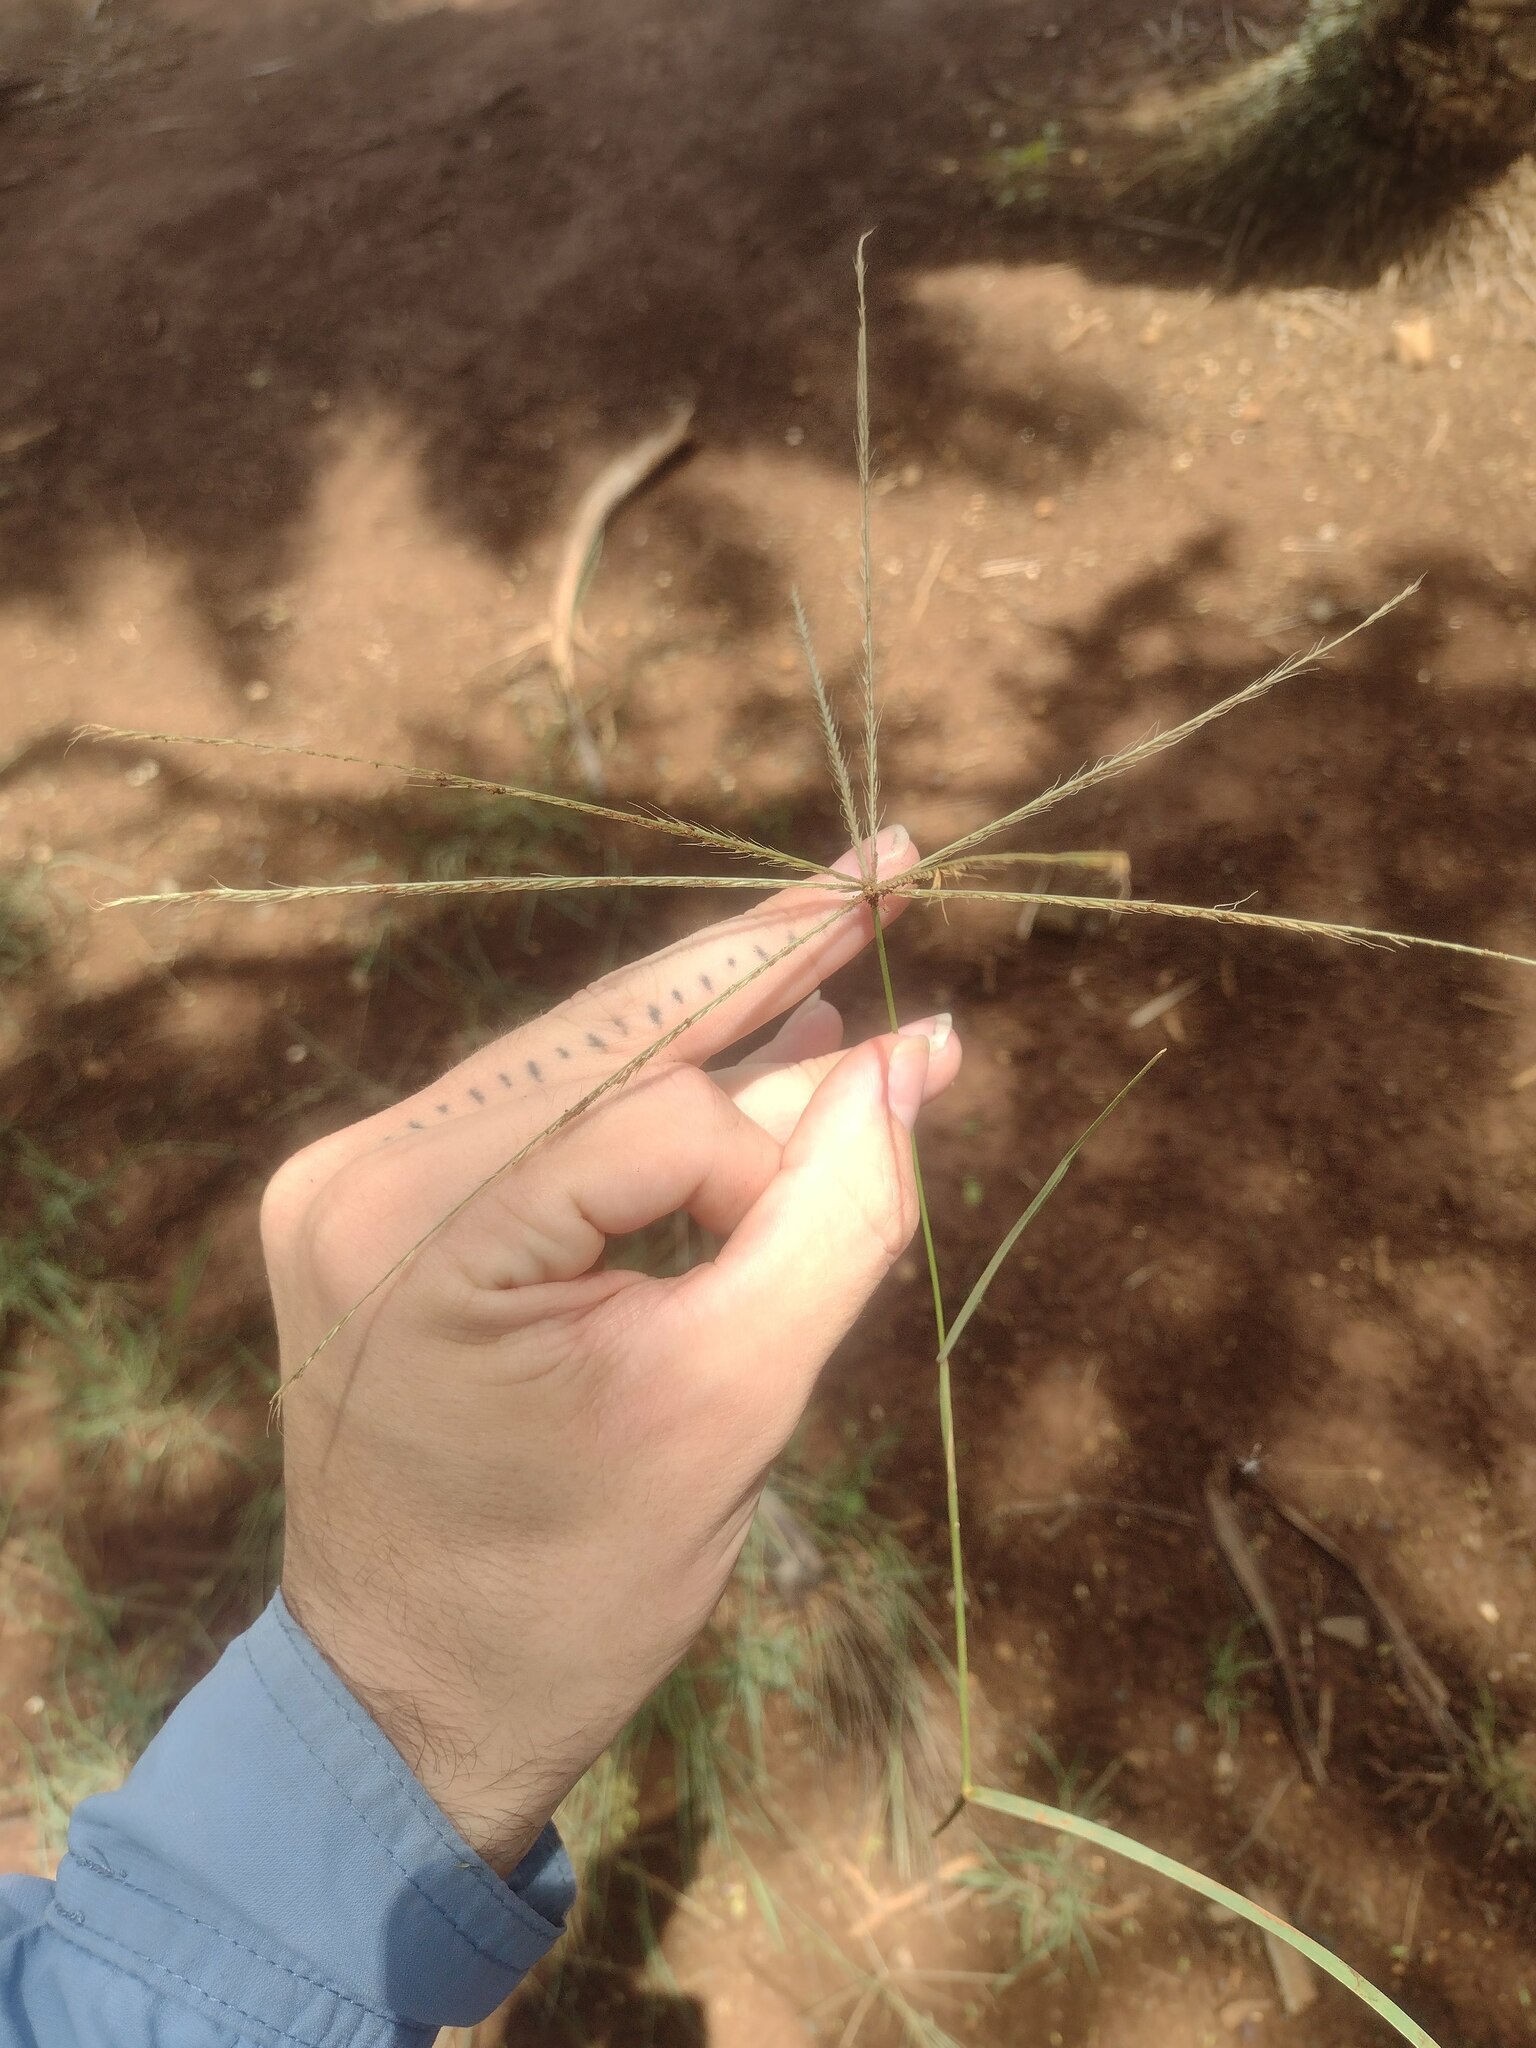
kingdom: Plantae
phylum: Tracheophyta
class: Liliopsida
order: Poales
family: Poaceae
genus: Chloris
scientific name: Chloris divaricata
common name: Spreading windmill grass
